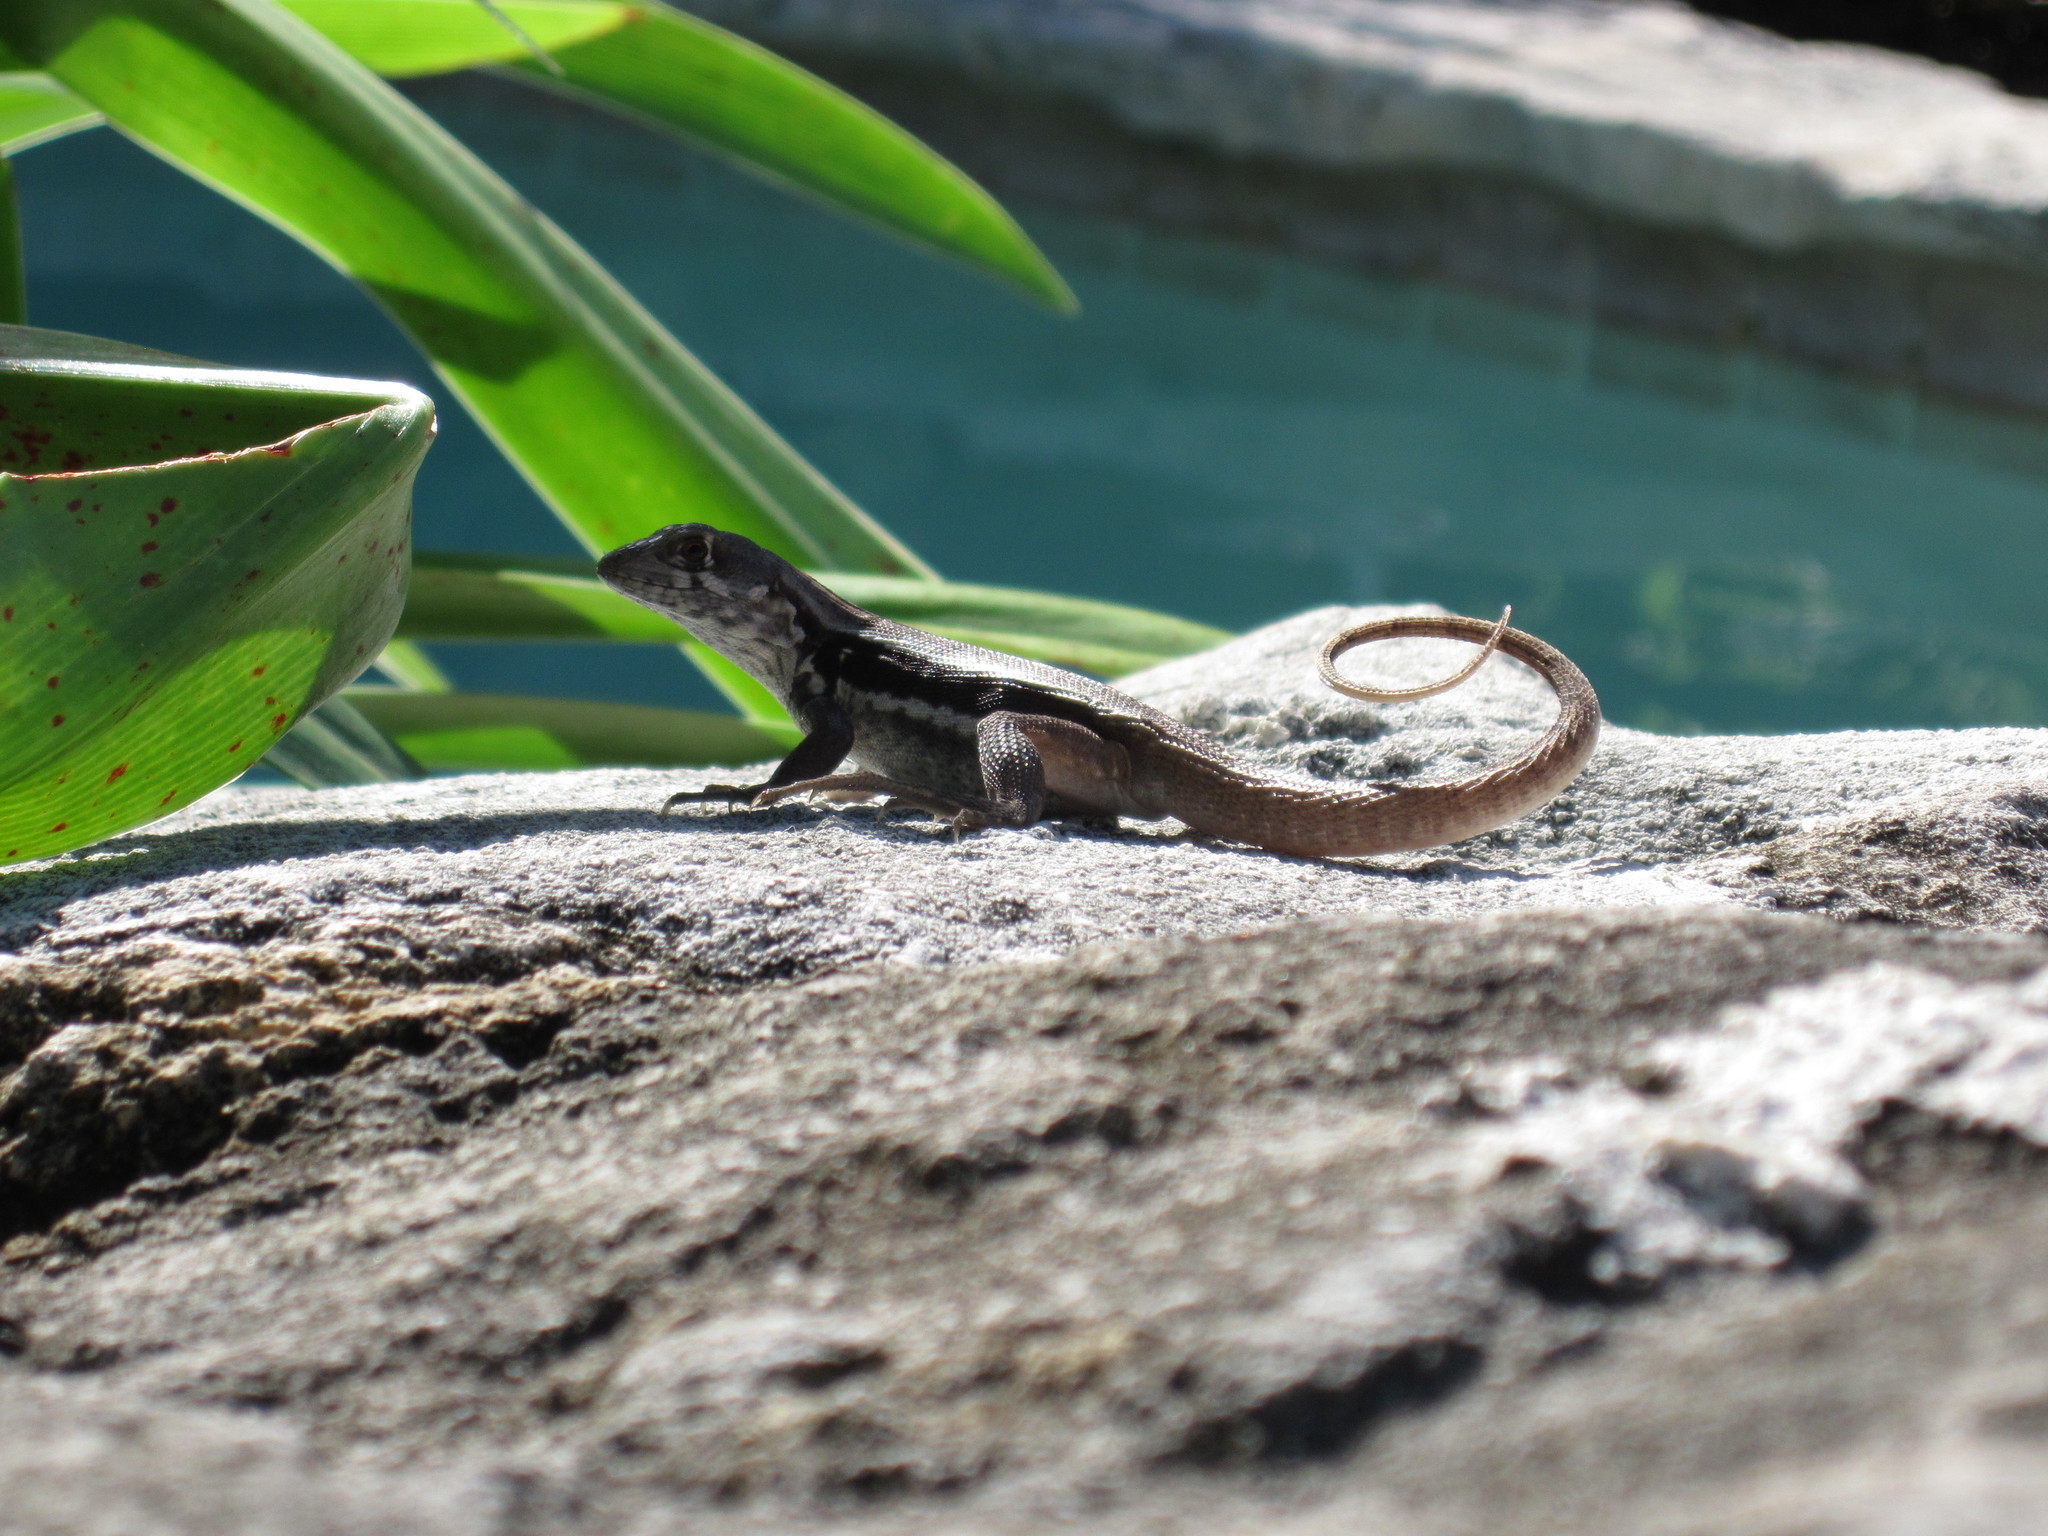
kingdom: Animalia
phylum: Chordata
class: Squamata
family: Leiocephalidae
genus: Leiocephalus
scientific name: Leiocephalus psammodromus
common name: Bastion cay curlytail lizard
